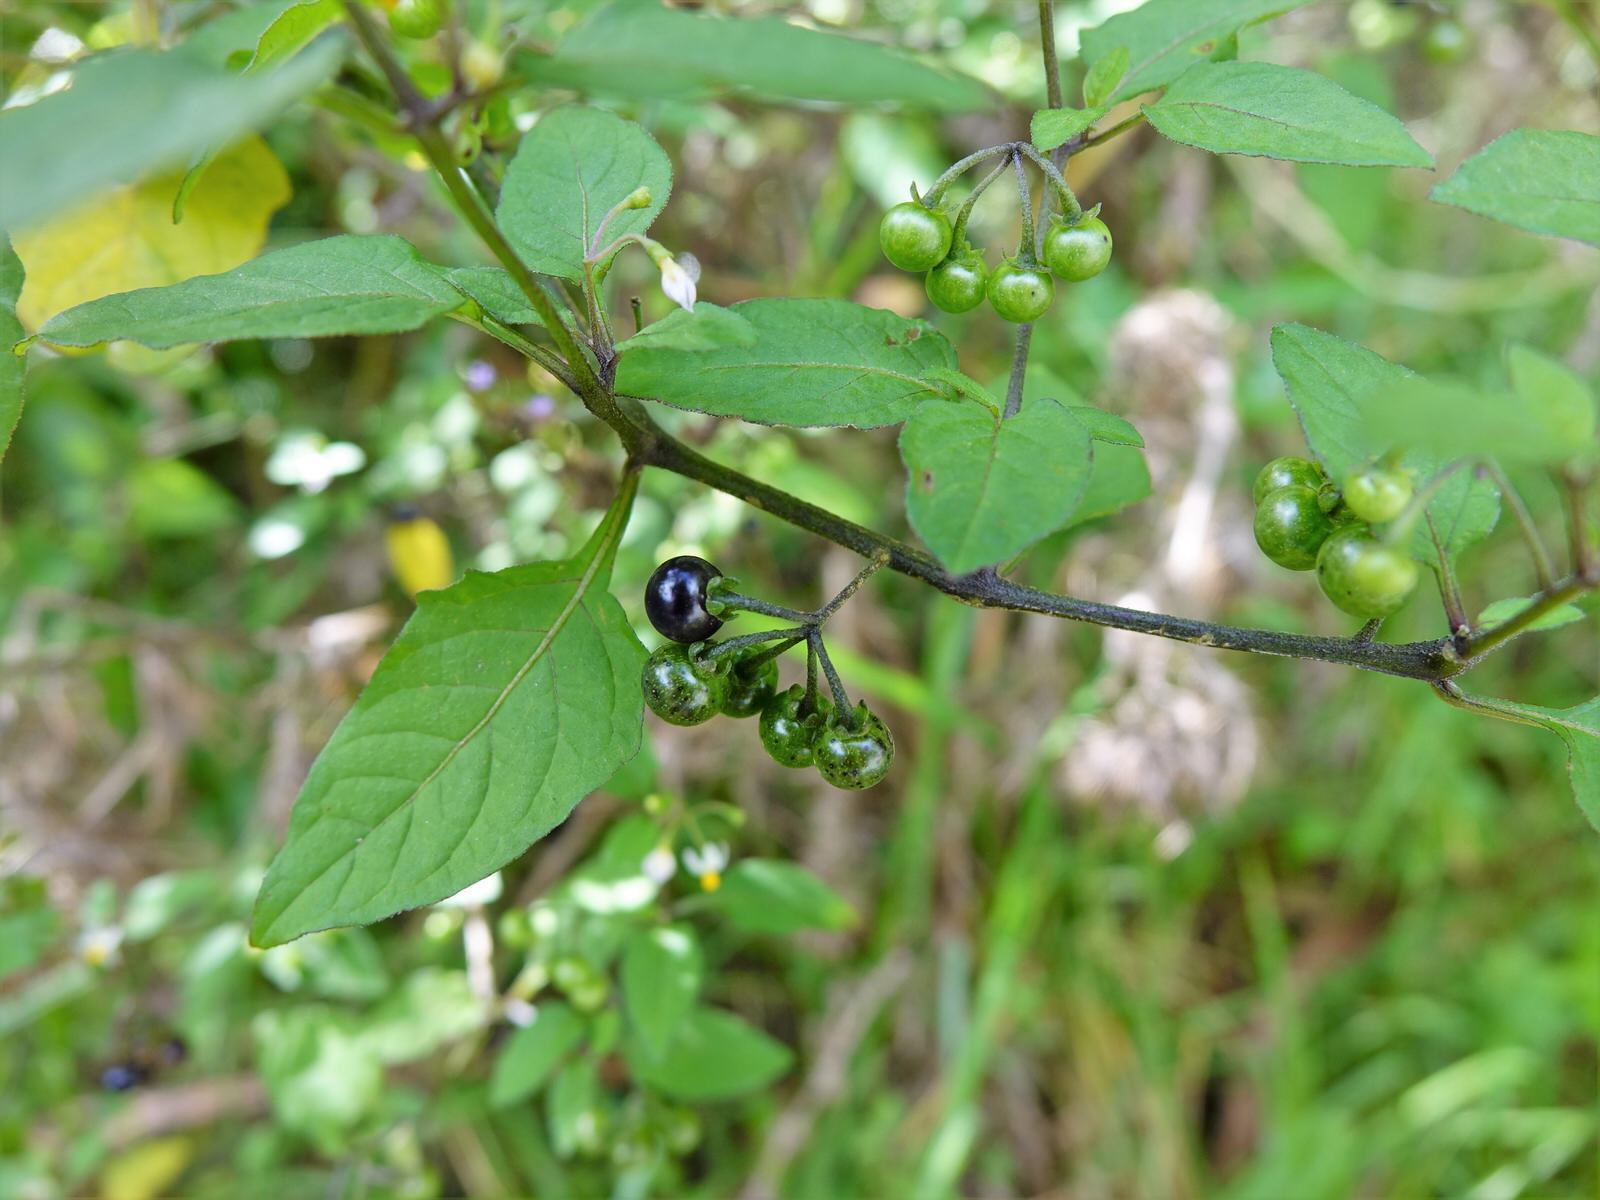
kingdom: Plantae
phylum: Tracheophyta
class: Magnoliopsida
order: Solanales
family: Solanaceae
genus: Solanum
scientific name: Solanum americanum
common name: American black nightshade
